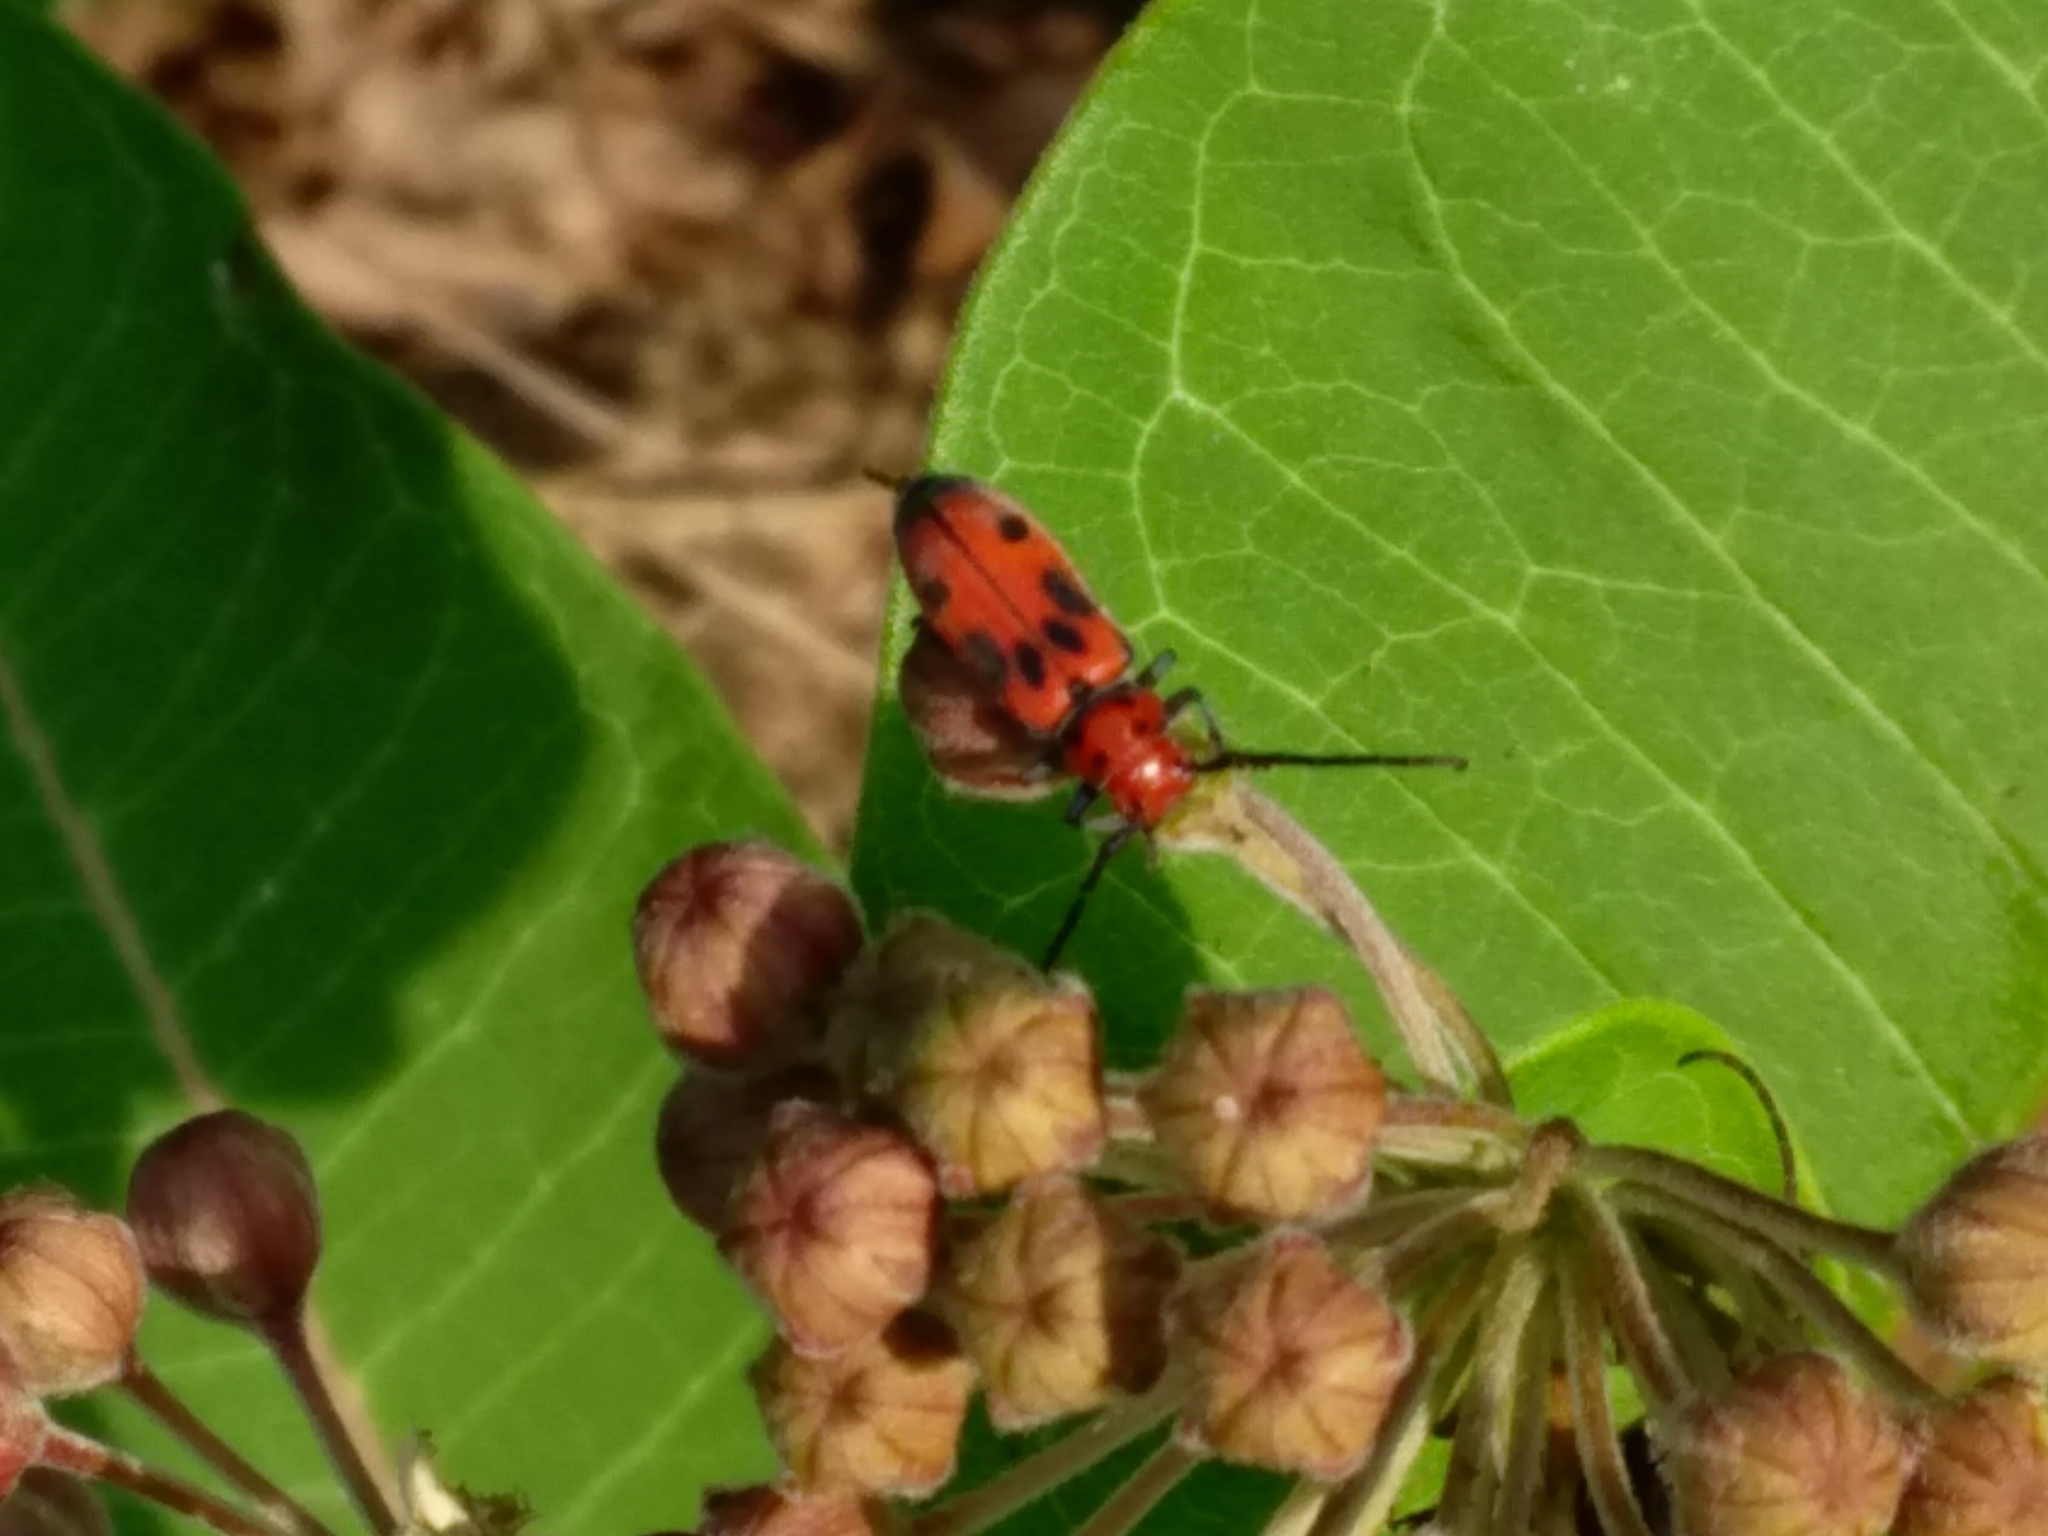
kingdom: Animalia
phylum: Arthropoda
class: Insecta
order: Coleoptera
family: Cerambycidae
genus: Tetraopes
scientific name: Tetraopes tetrophthalmus
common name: Red milkweed beetle
